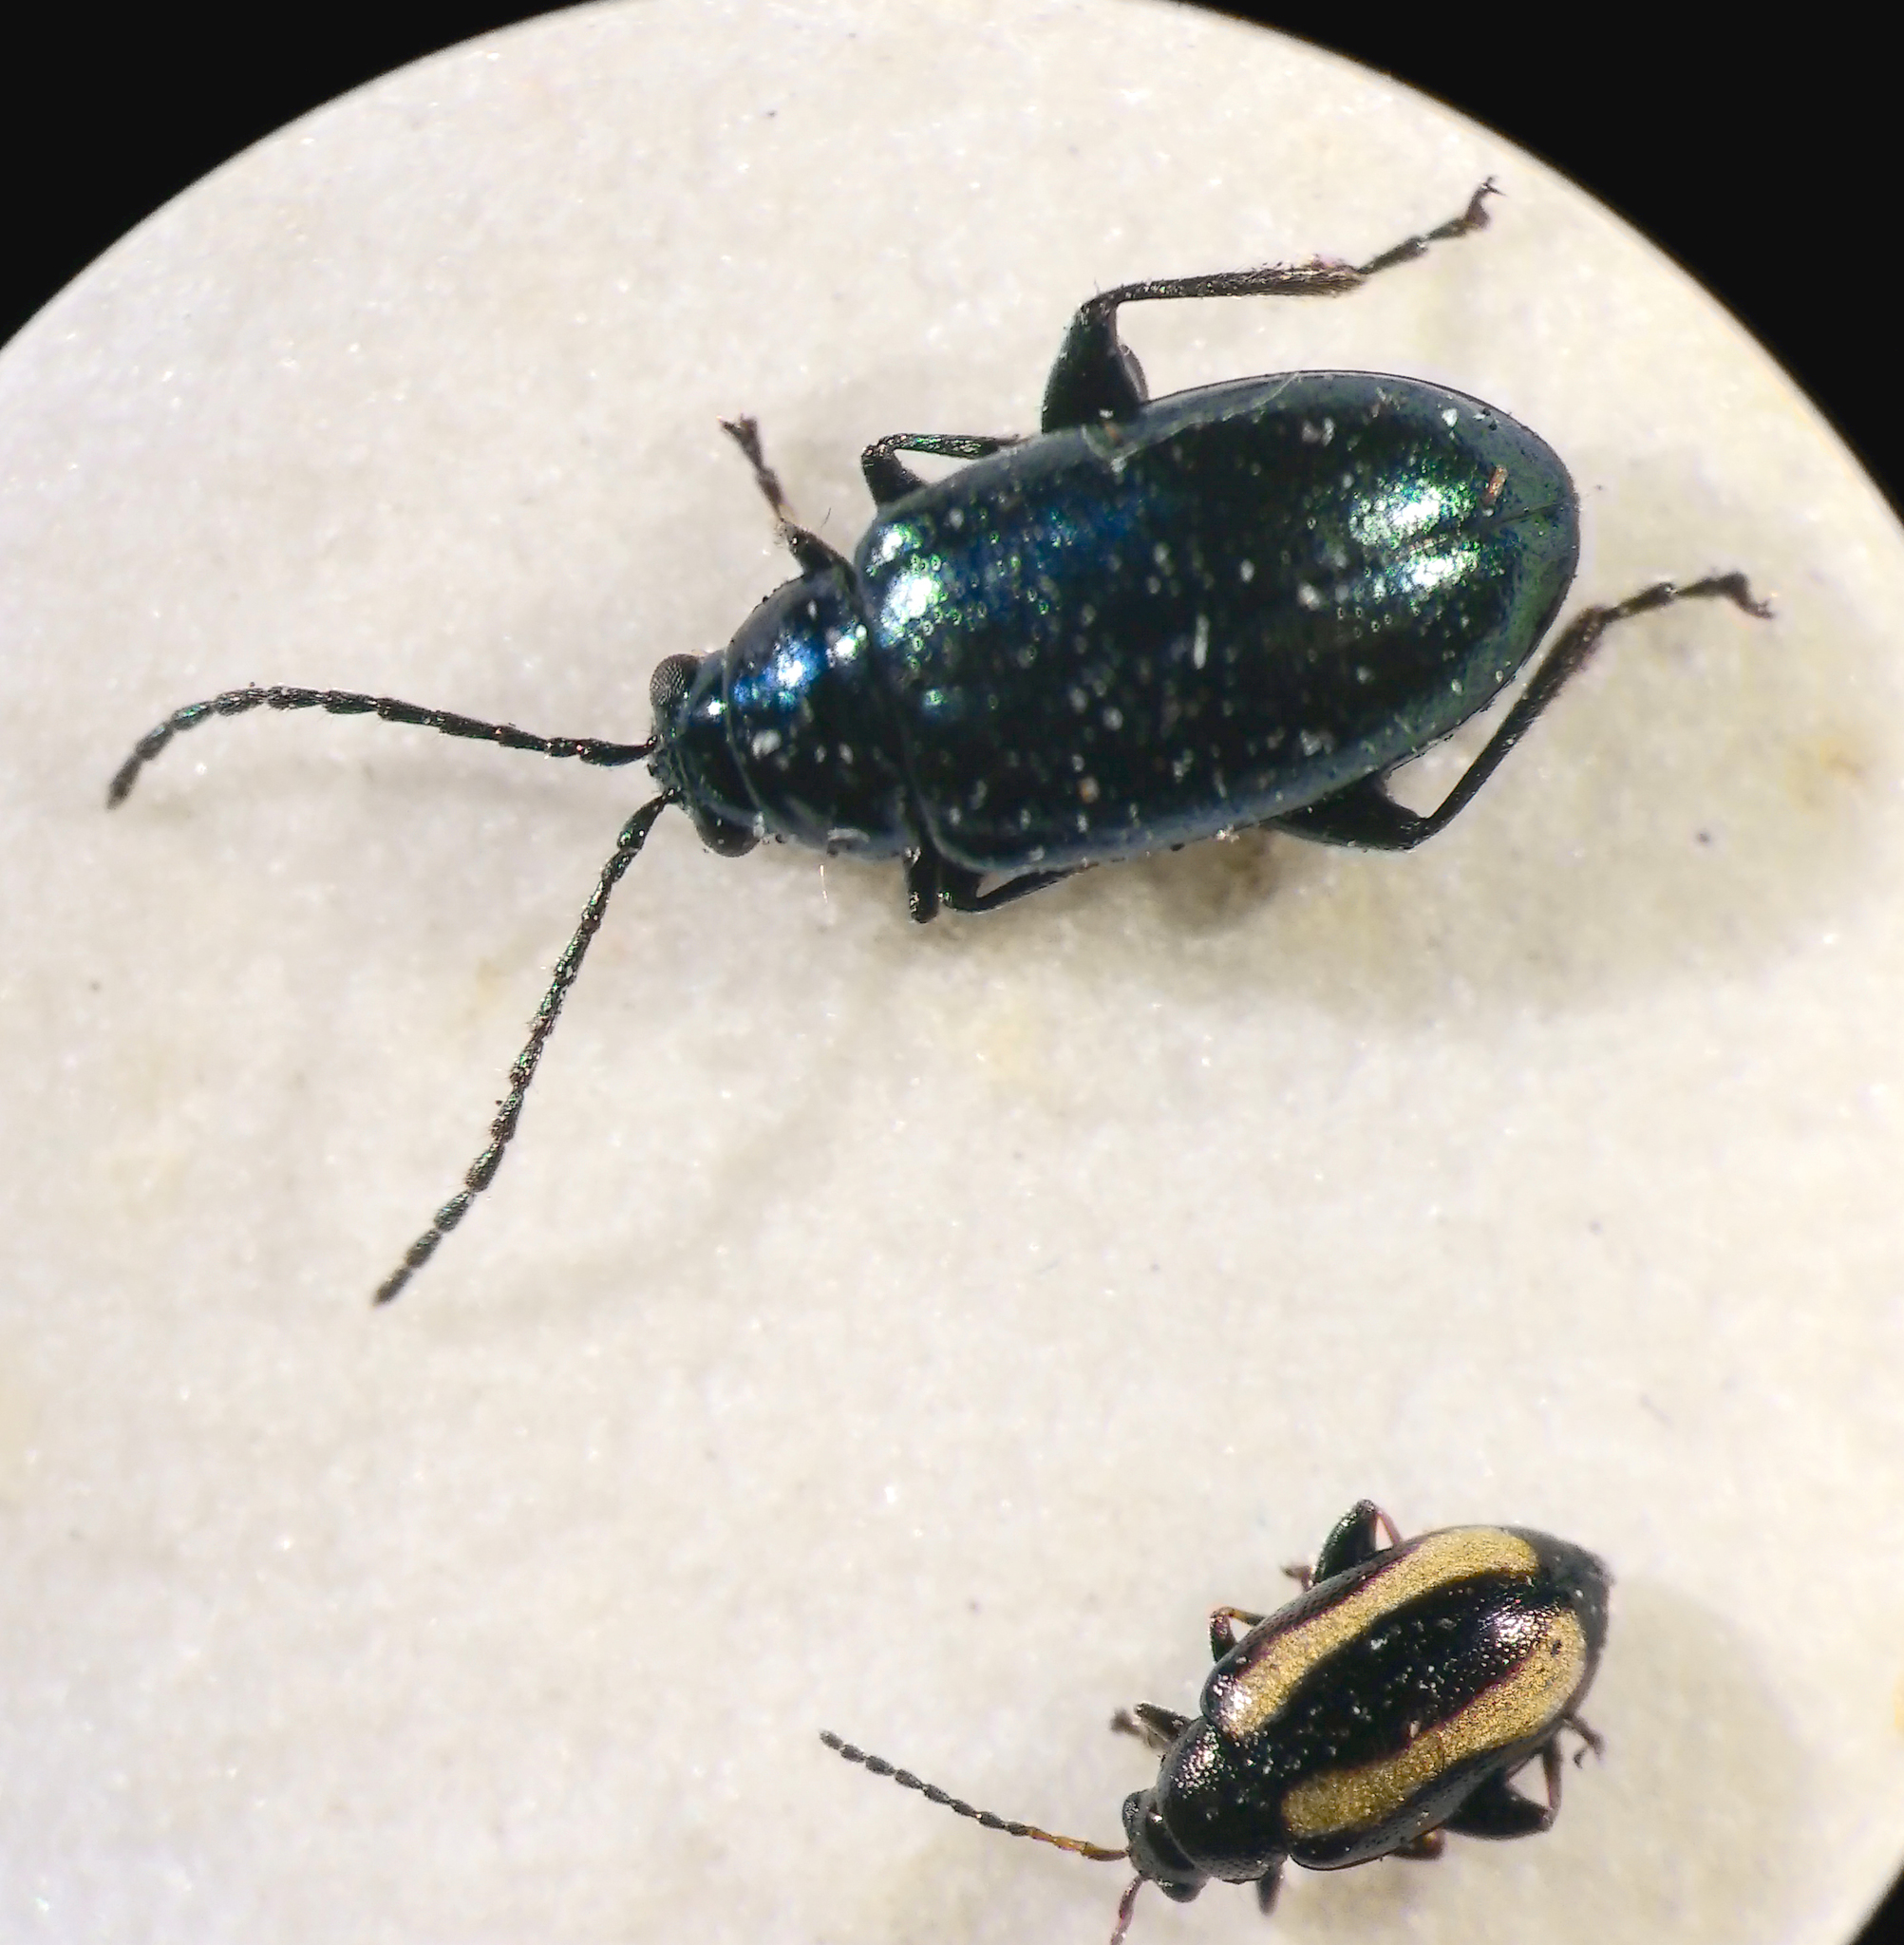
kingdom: Animalia
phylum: Arthropoda
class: Insecta
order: Coleoptera
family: Chrysomelidae
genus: Altica
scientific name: Altica
